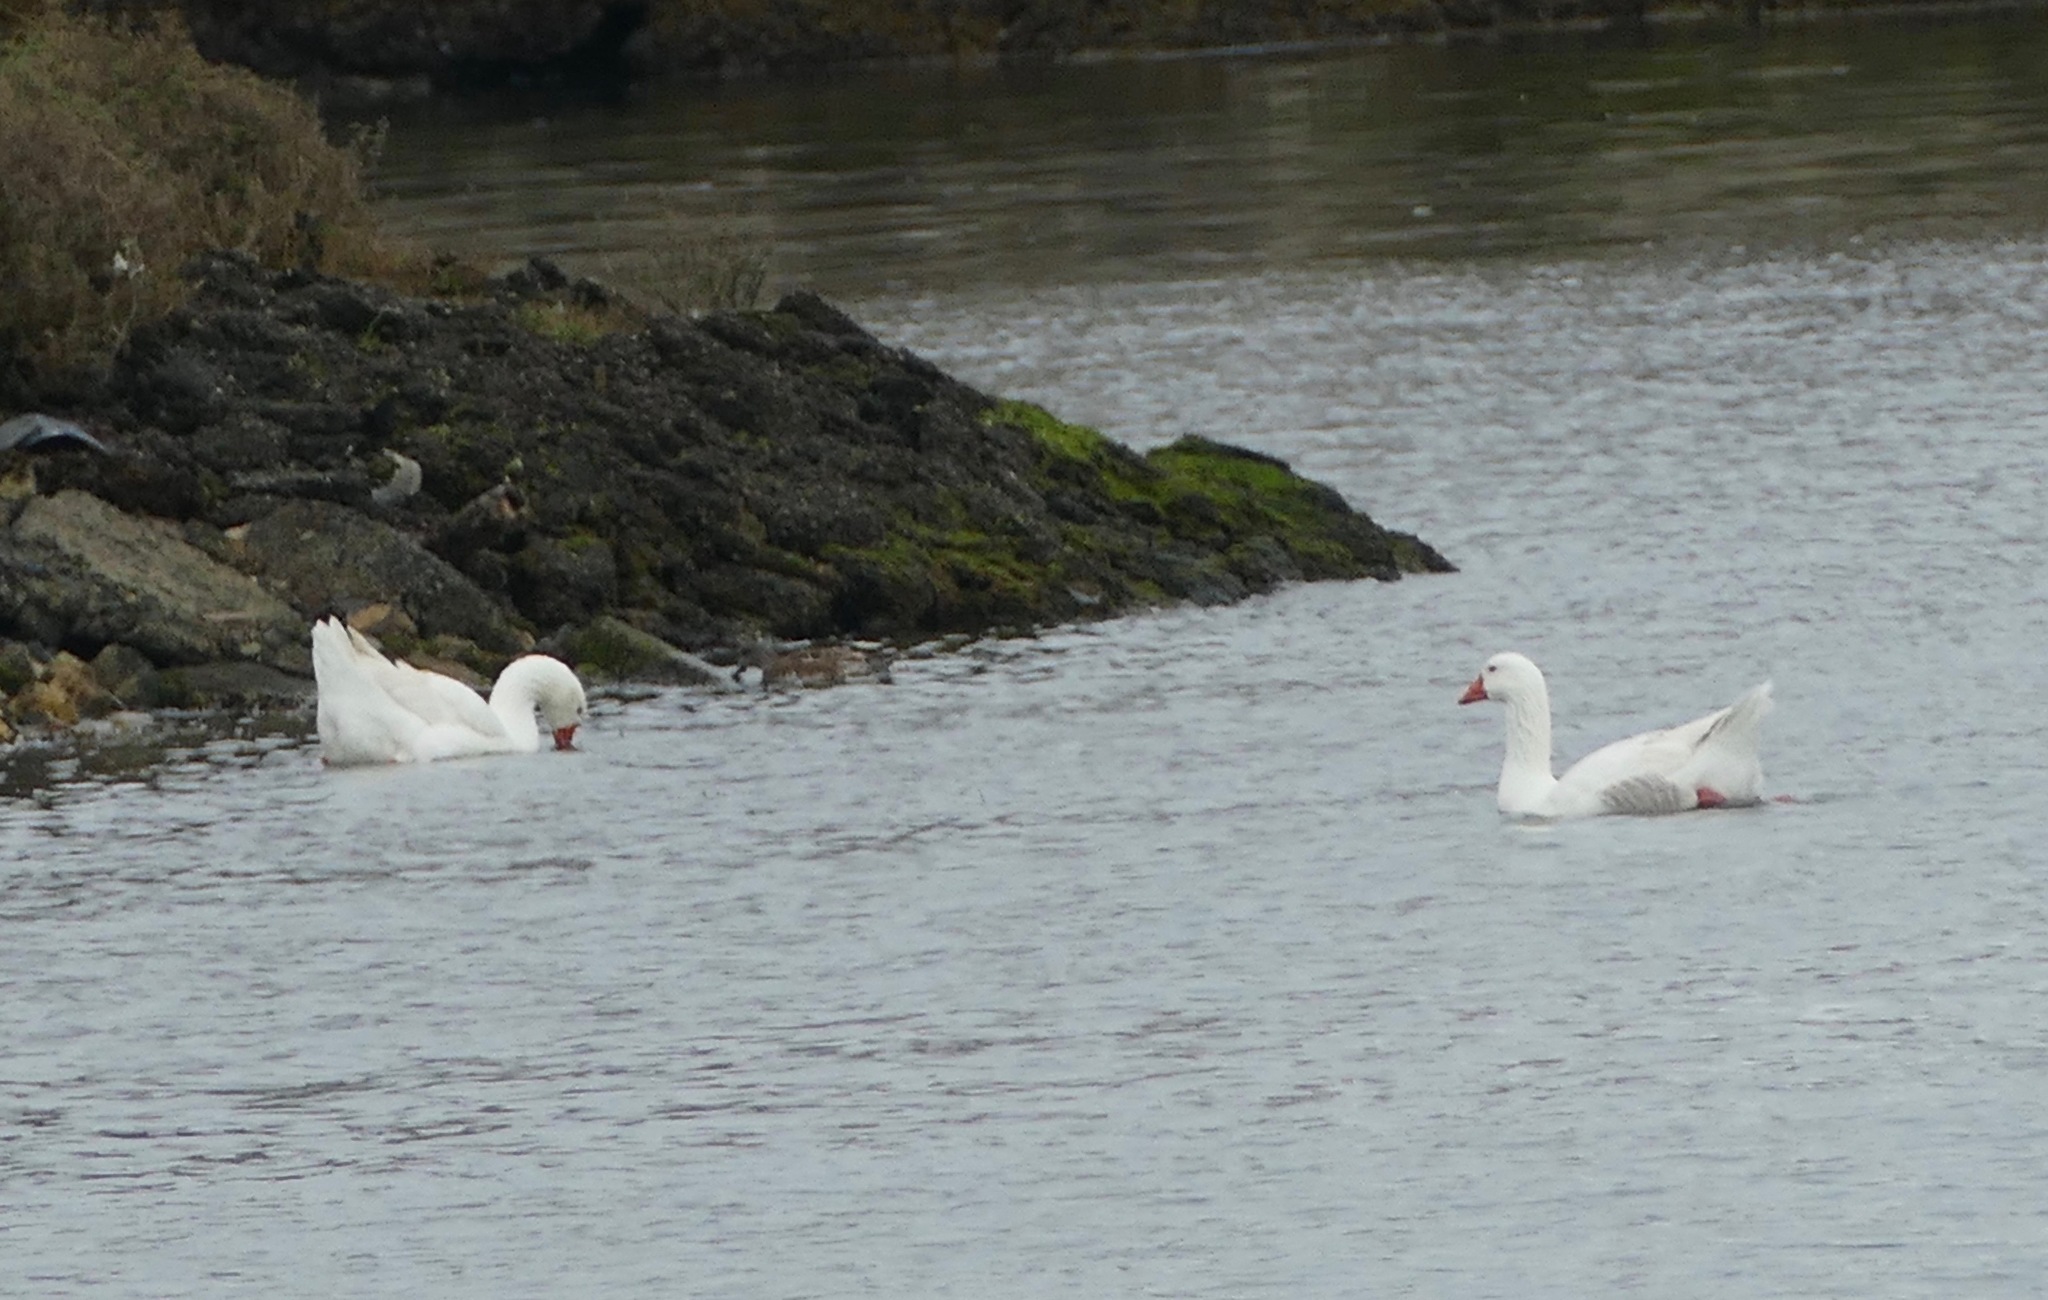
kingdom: Animalia
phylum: Chordata
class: Aves
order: Anseriformes
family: Anatidae
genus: Anser
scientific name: Anser anser
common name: Greylag goose
